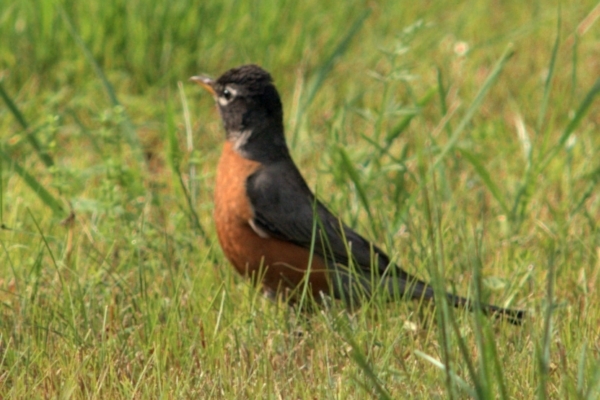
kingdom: Animalia
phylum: Chordata
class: Aves
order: Passeriformes
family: Turdidae
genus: Turdus
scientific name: Turdus migratorius
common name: American robin
